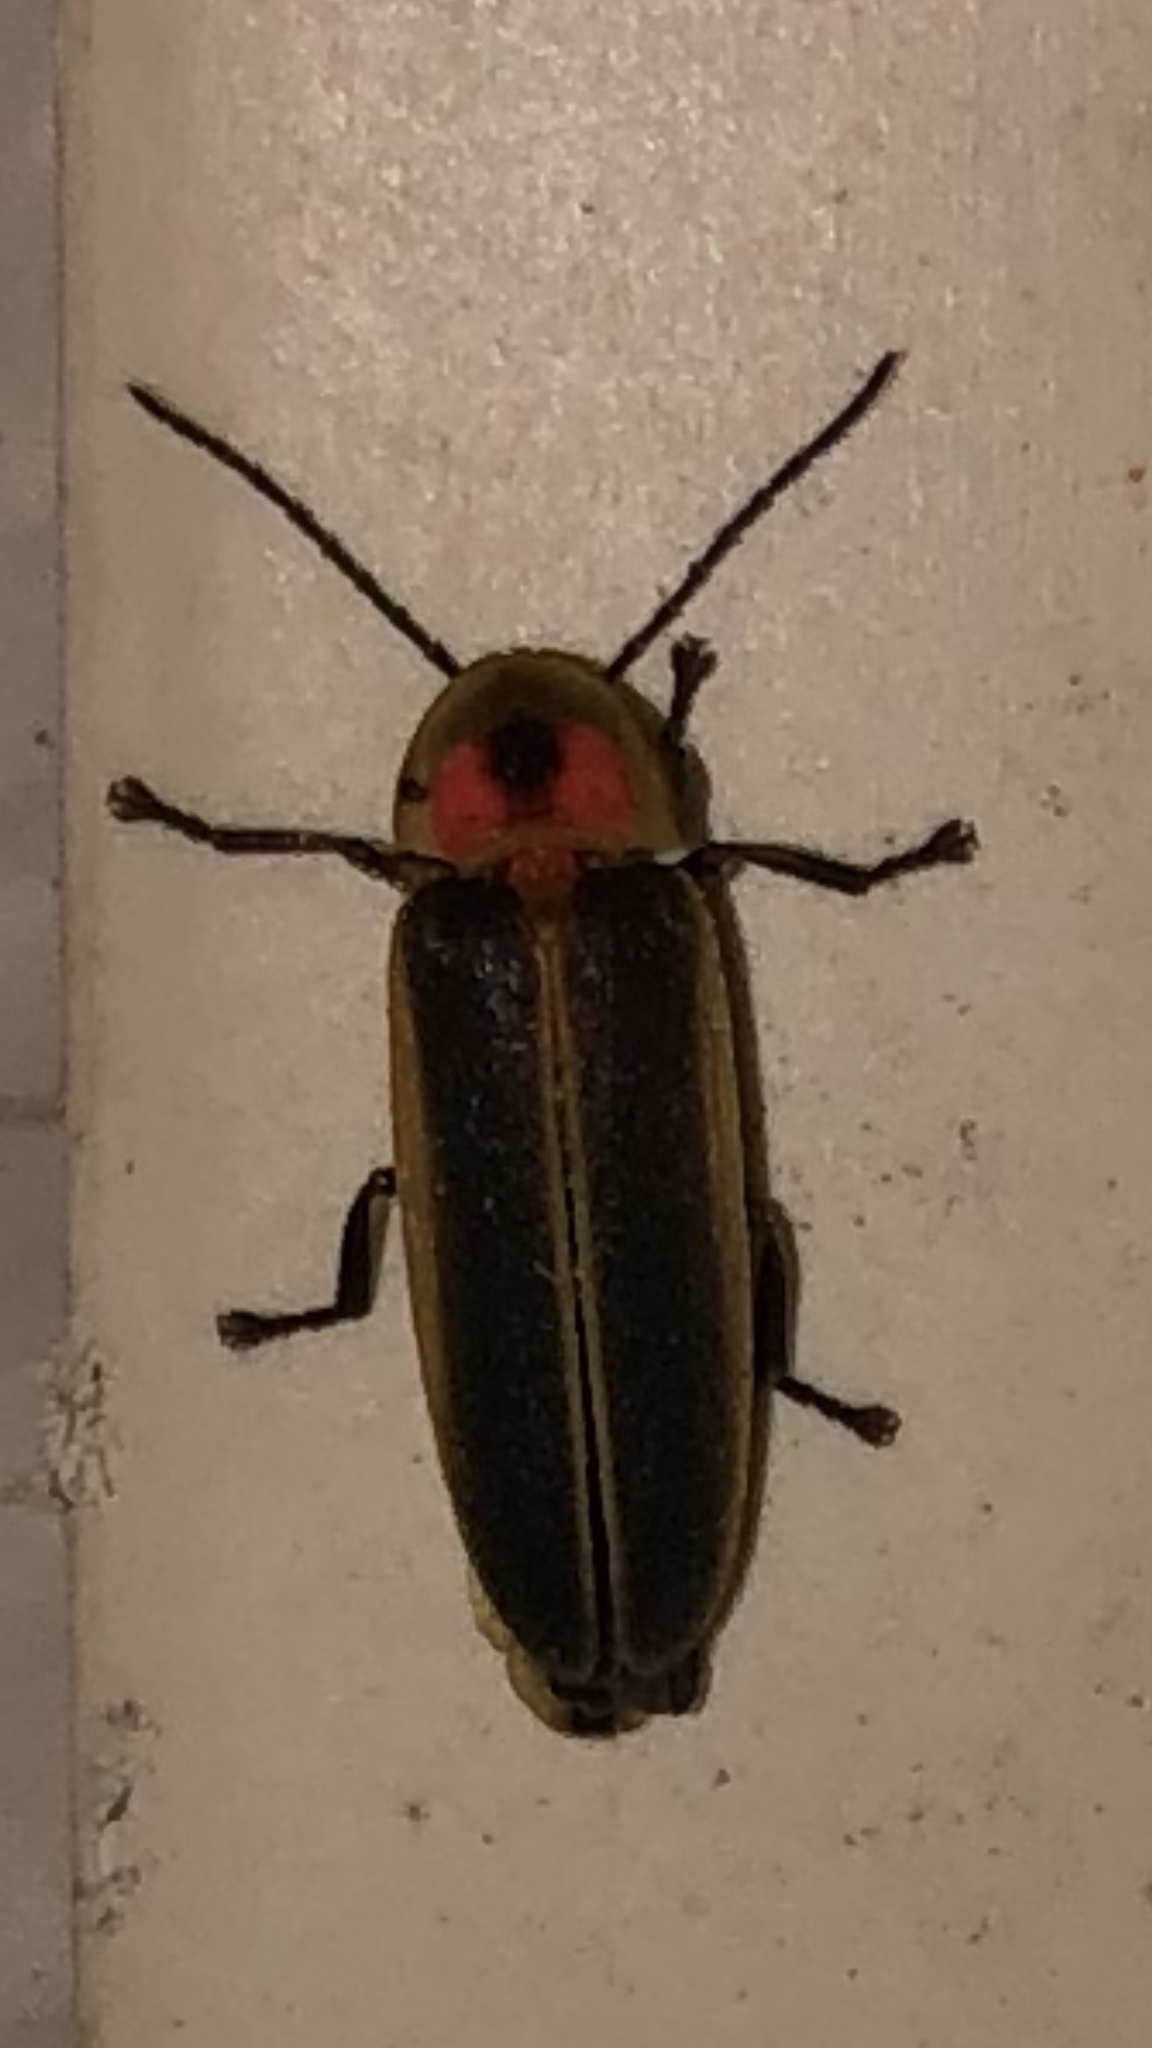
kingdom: Animalia
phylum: Arthropoda
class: Insecta
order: Coleoptera
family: Lampyridae
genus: Photinus
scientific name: Photinus pyralis
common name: Big dipper firefly
